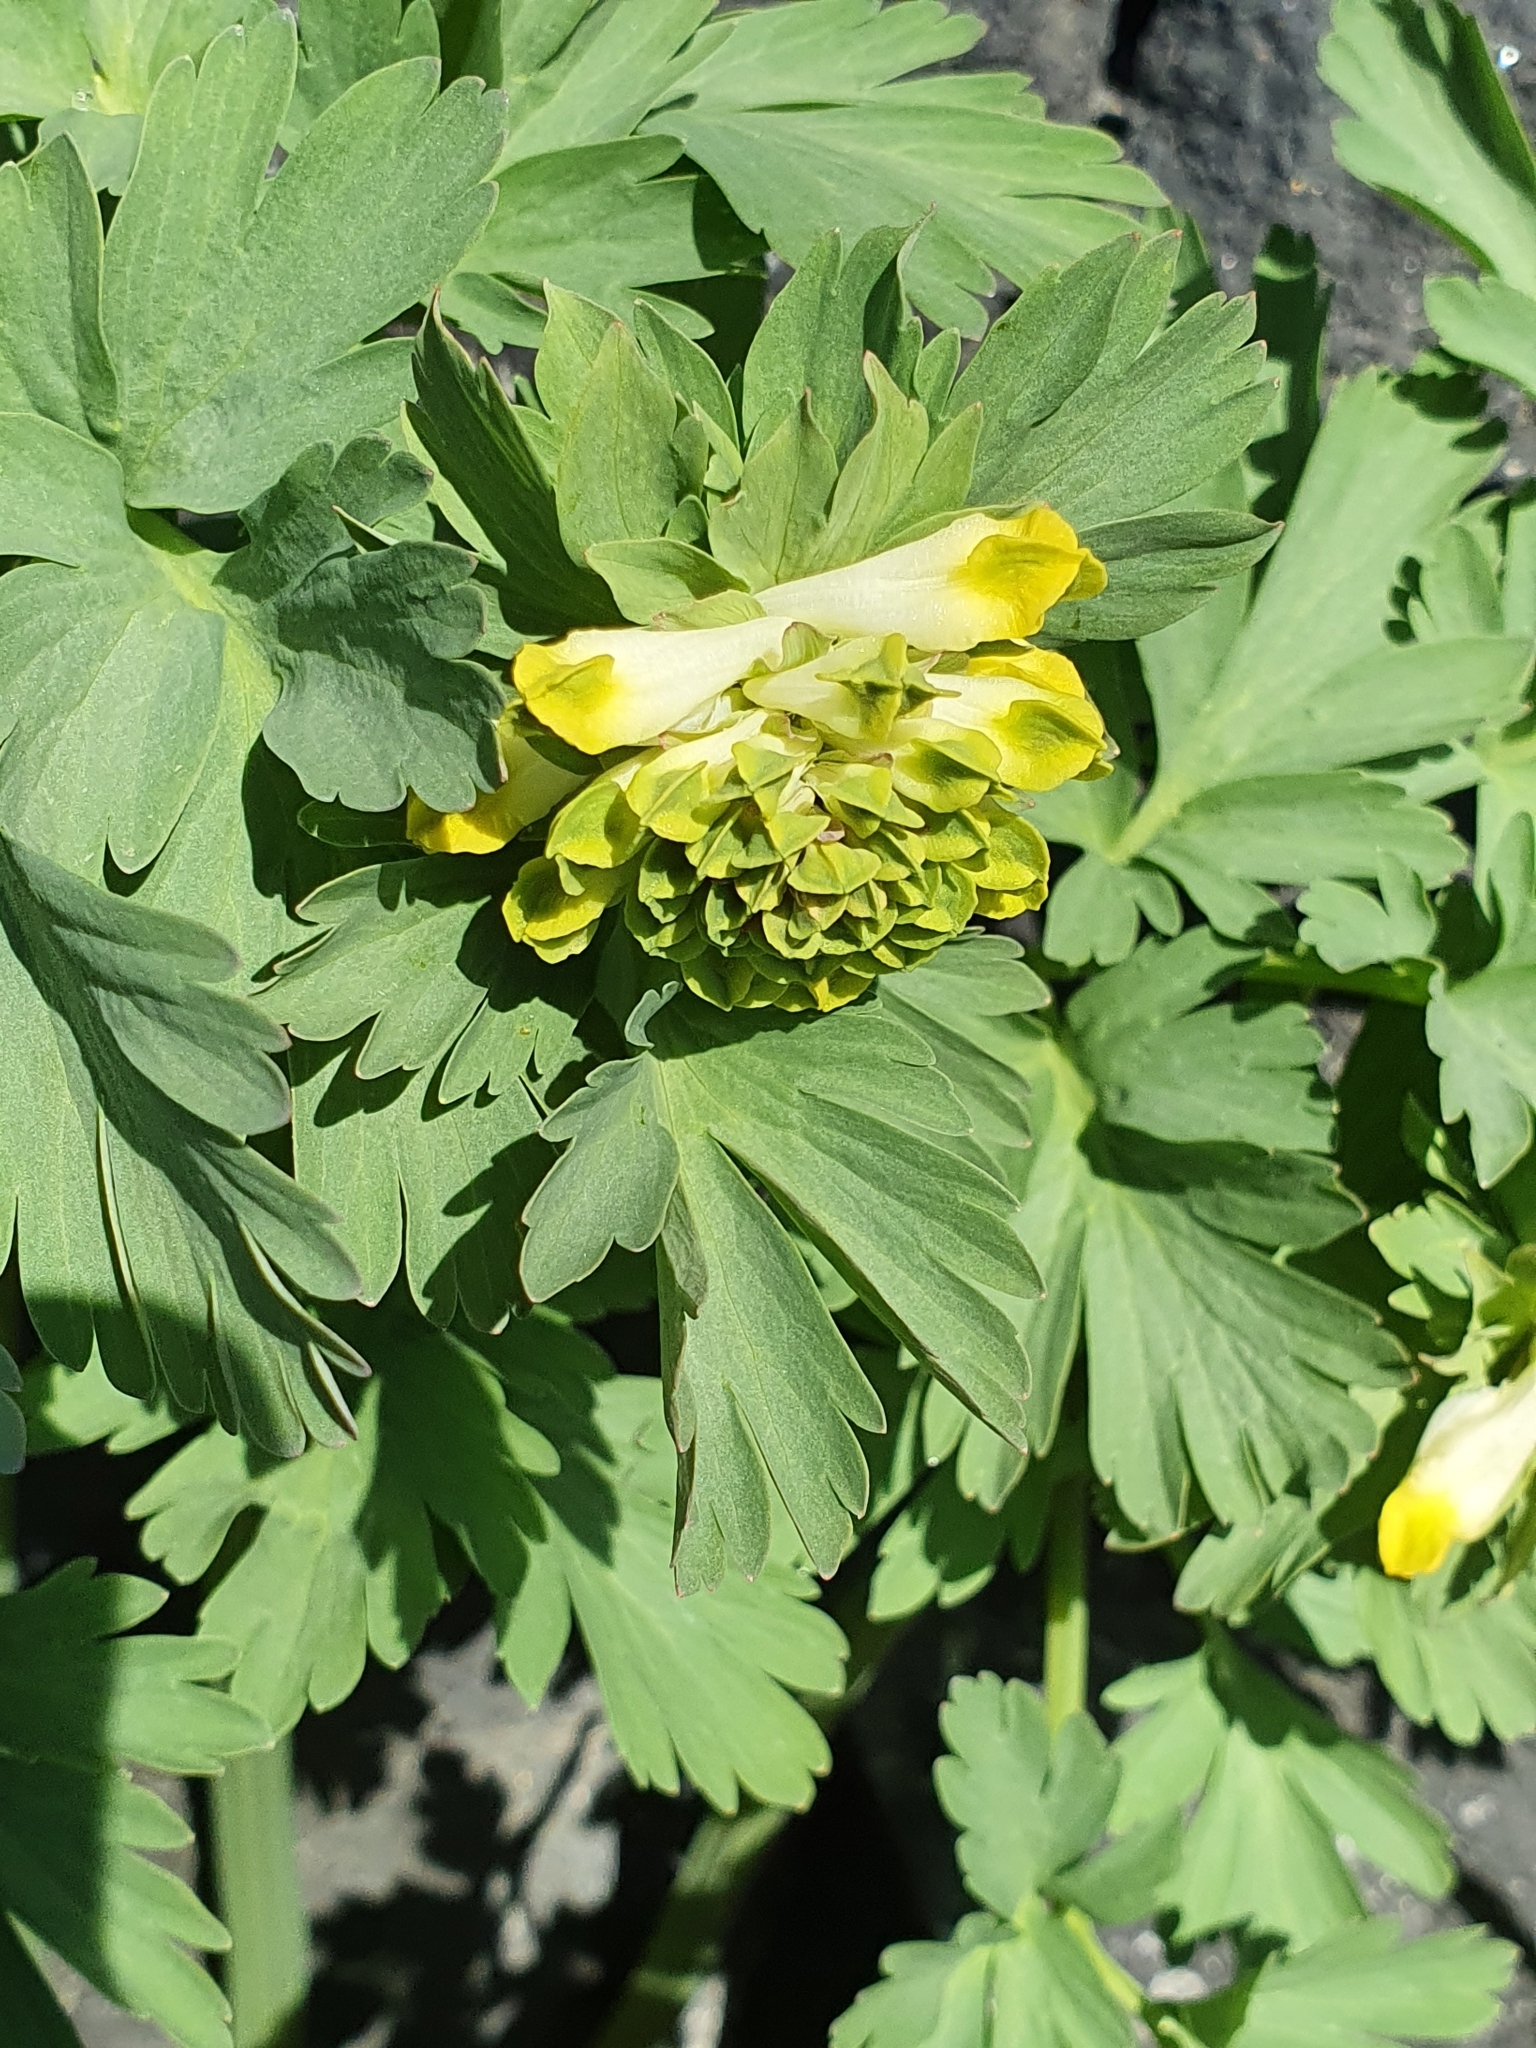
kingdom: Plantae
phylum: Tracheophyta
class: Magnoliopsida
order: Ranunculales
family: Papaveraceae
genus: Corydalis
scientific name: Corydalis nobilis
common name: Siberian corydalis
